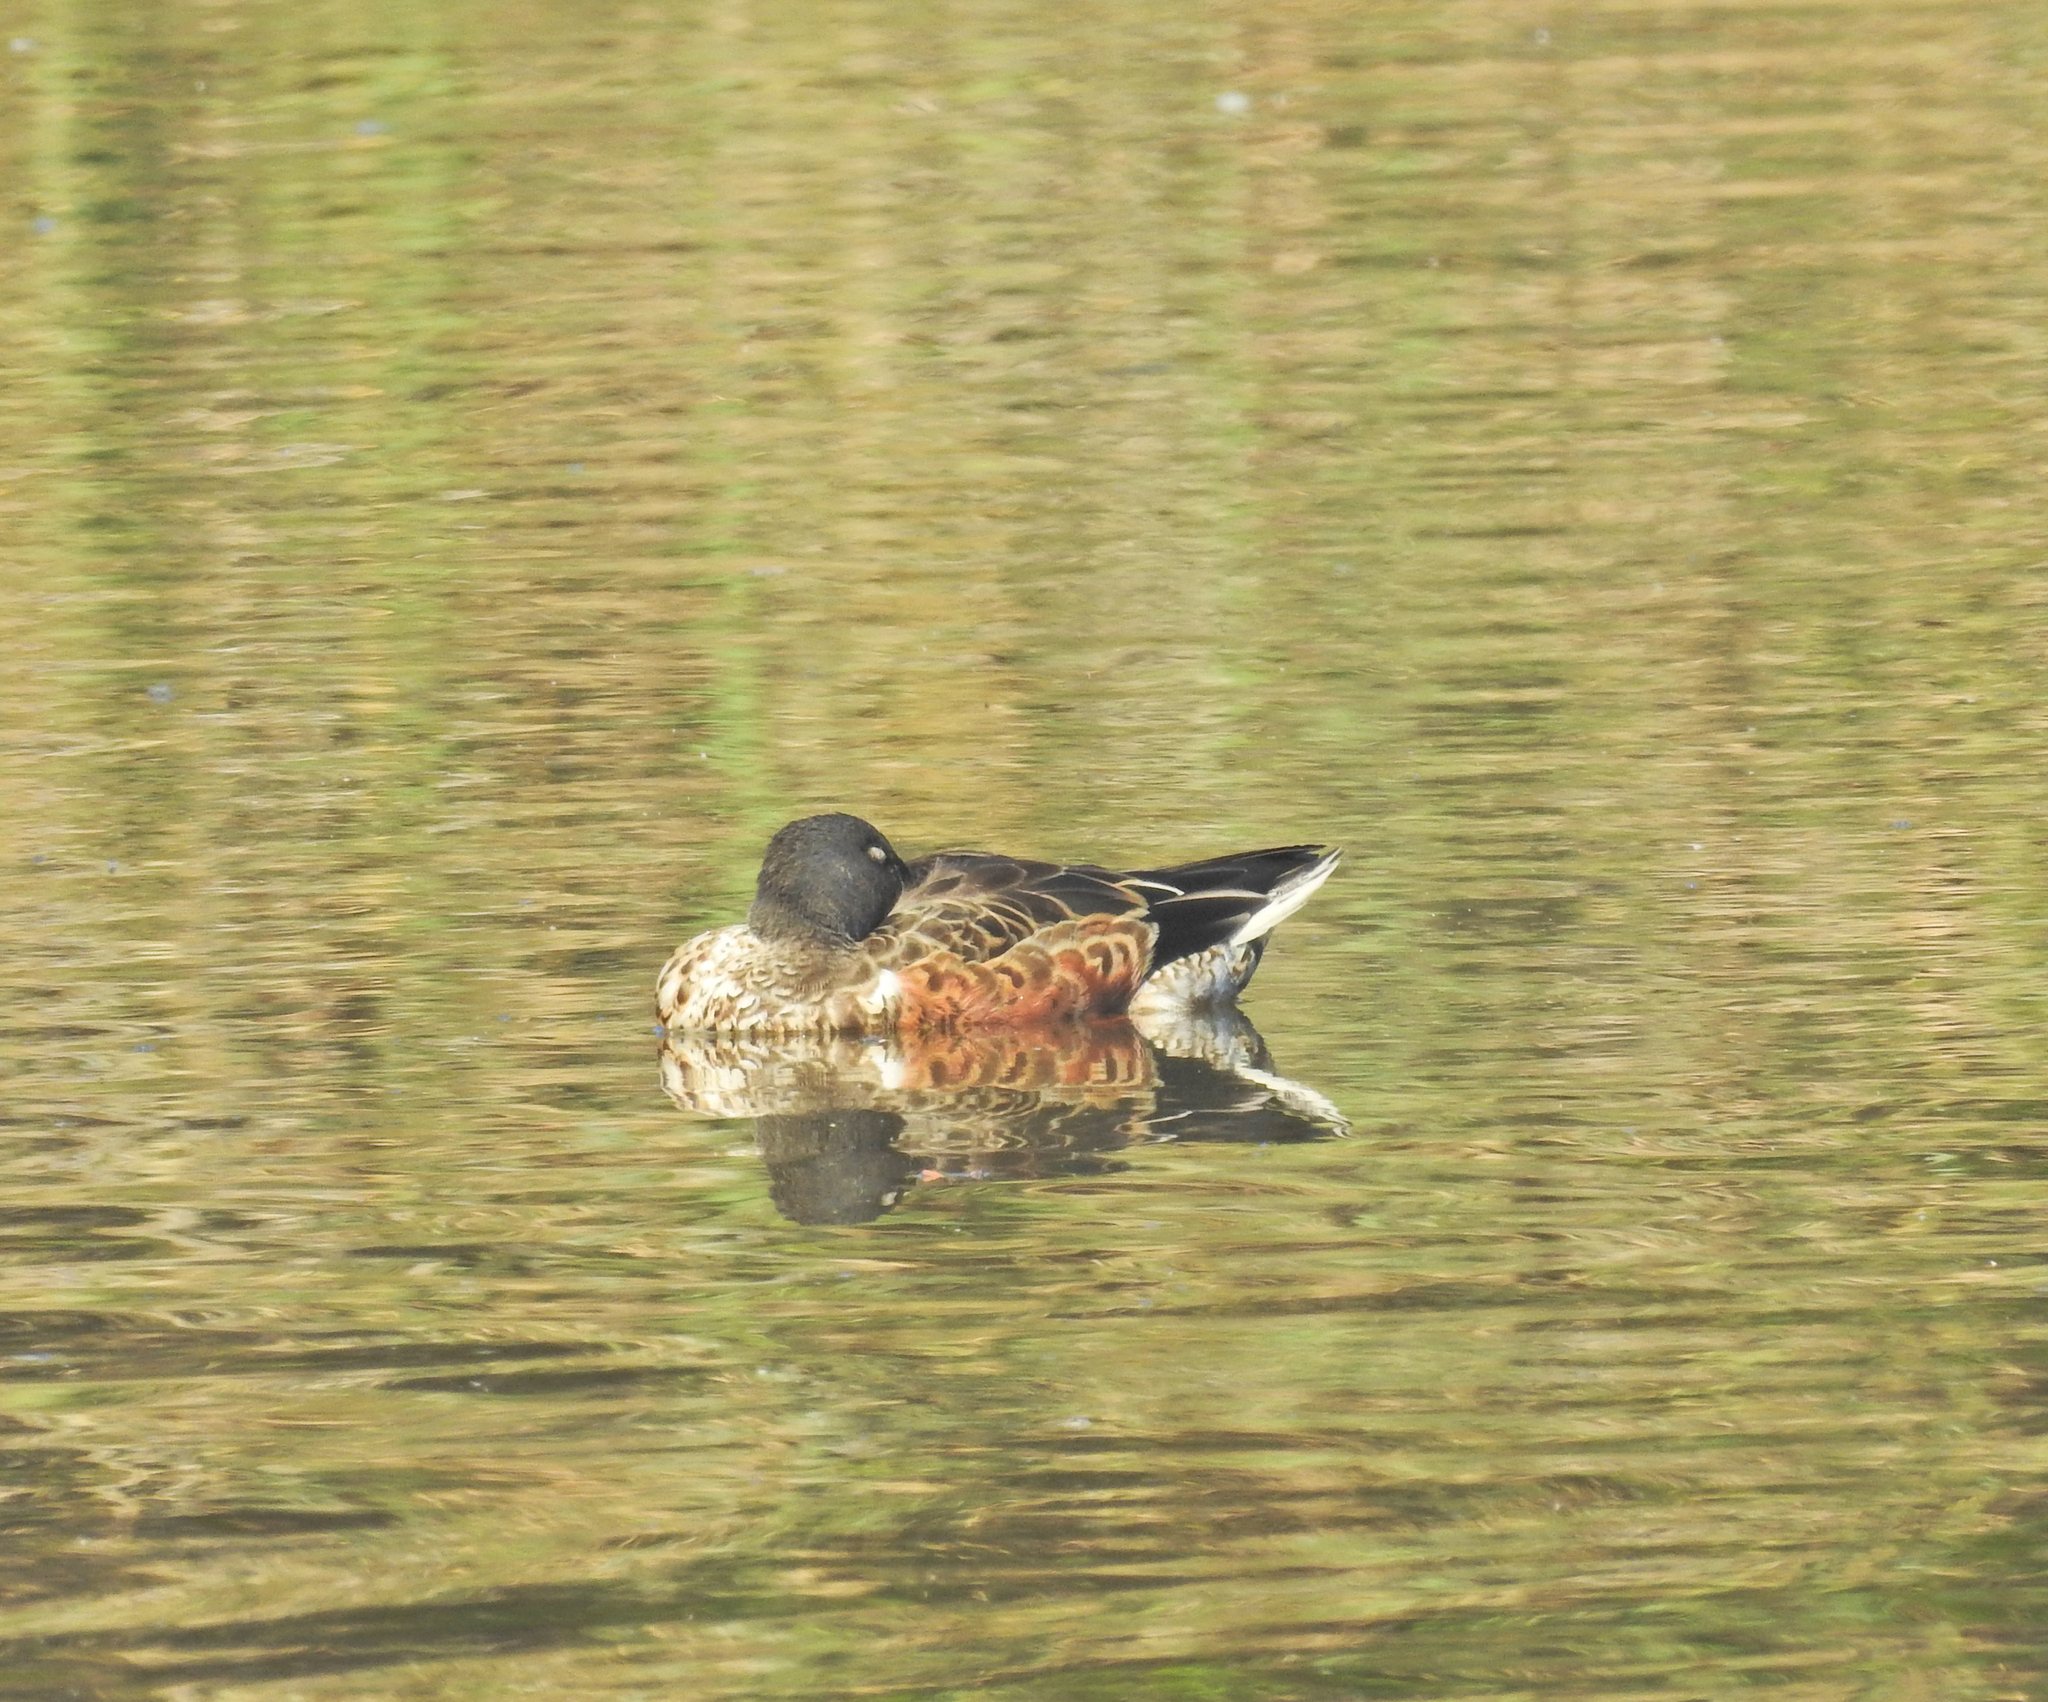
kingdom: Animalia
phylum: Chordata
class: Aves
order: Anseriformes
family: Anatidae
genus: Spatula
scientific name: Spatula clypeata
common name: Northern shoveler
